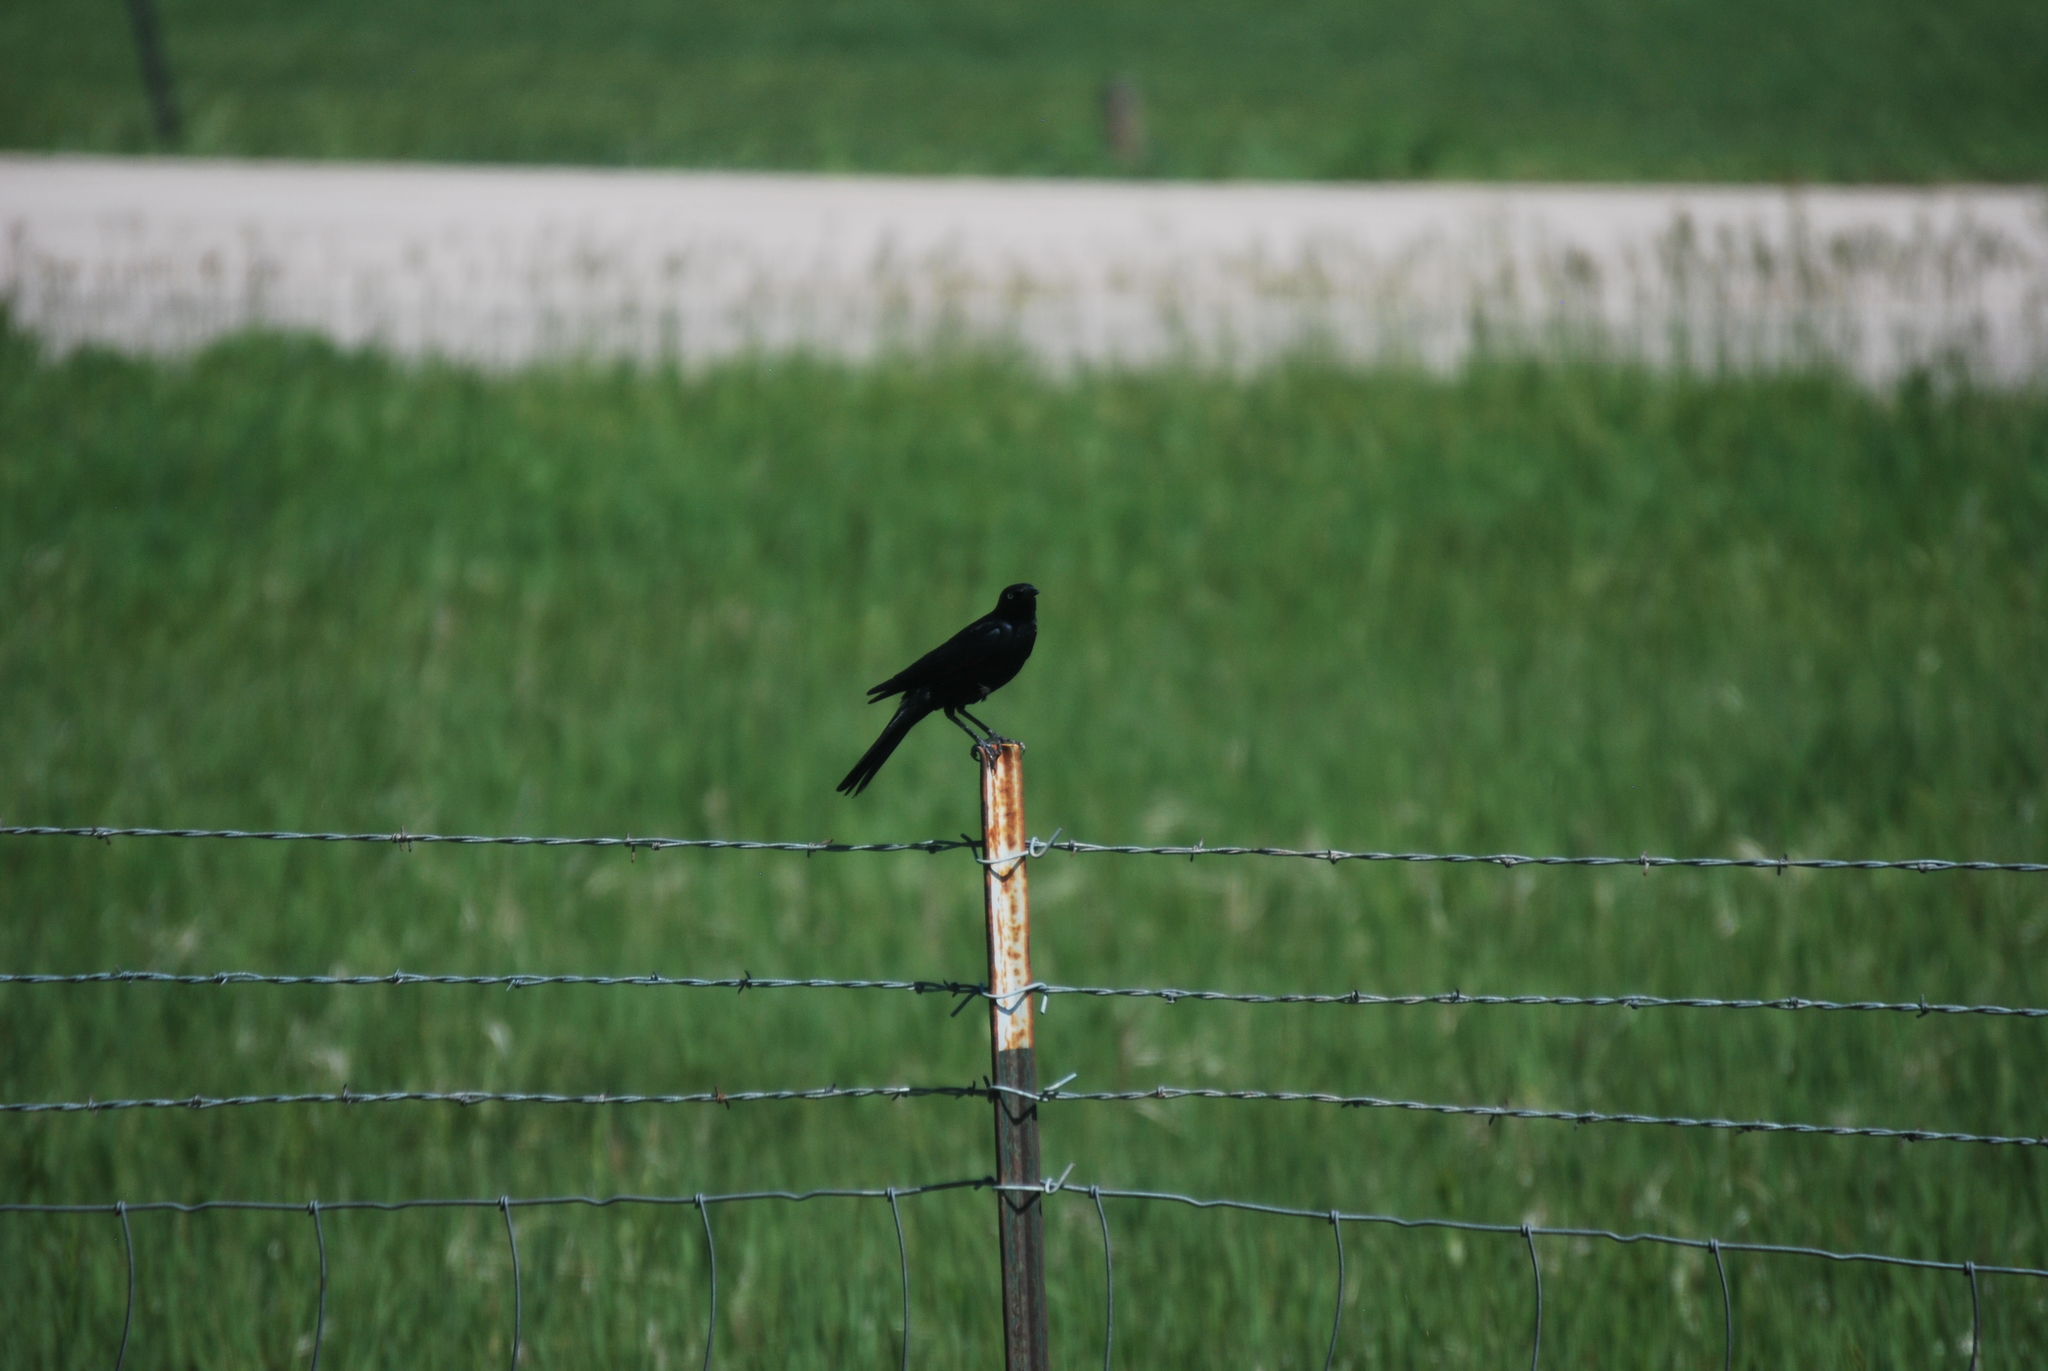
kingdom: Animalia
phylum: Chordata
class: Aves
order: Passeriformes
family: Icteridae
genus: Quiscalus
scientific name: Quiscalus quiscula
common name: Common grackle
